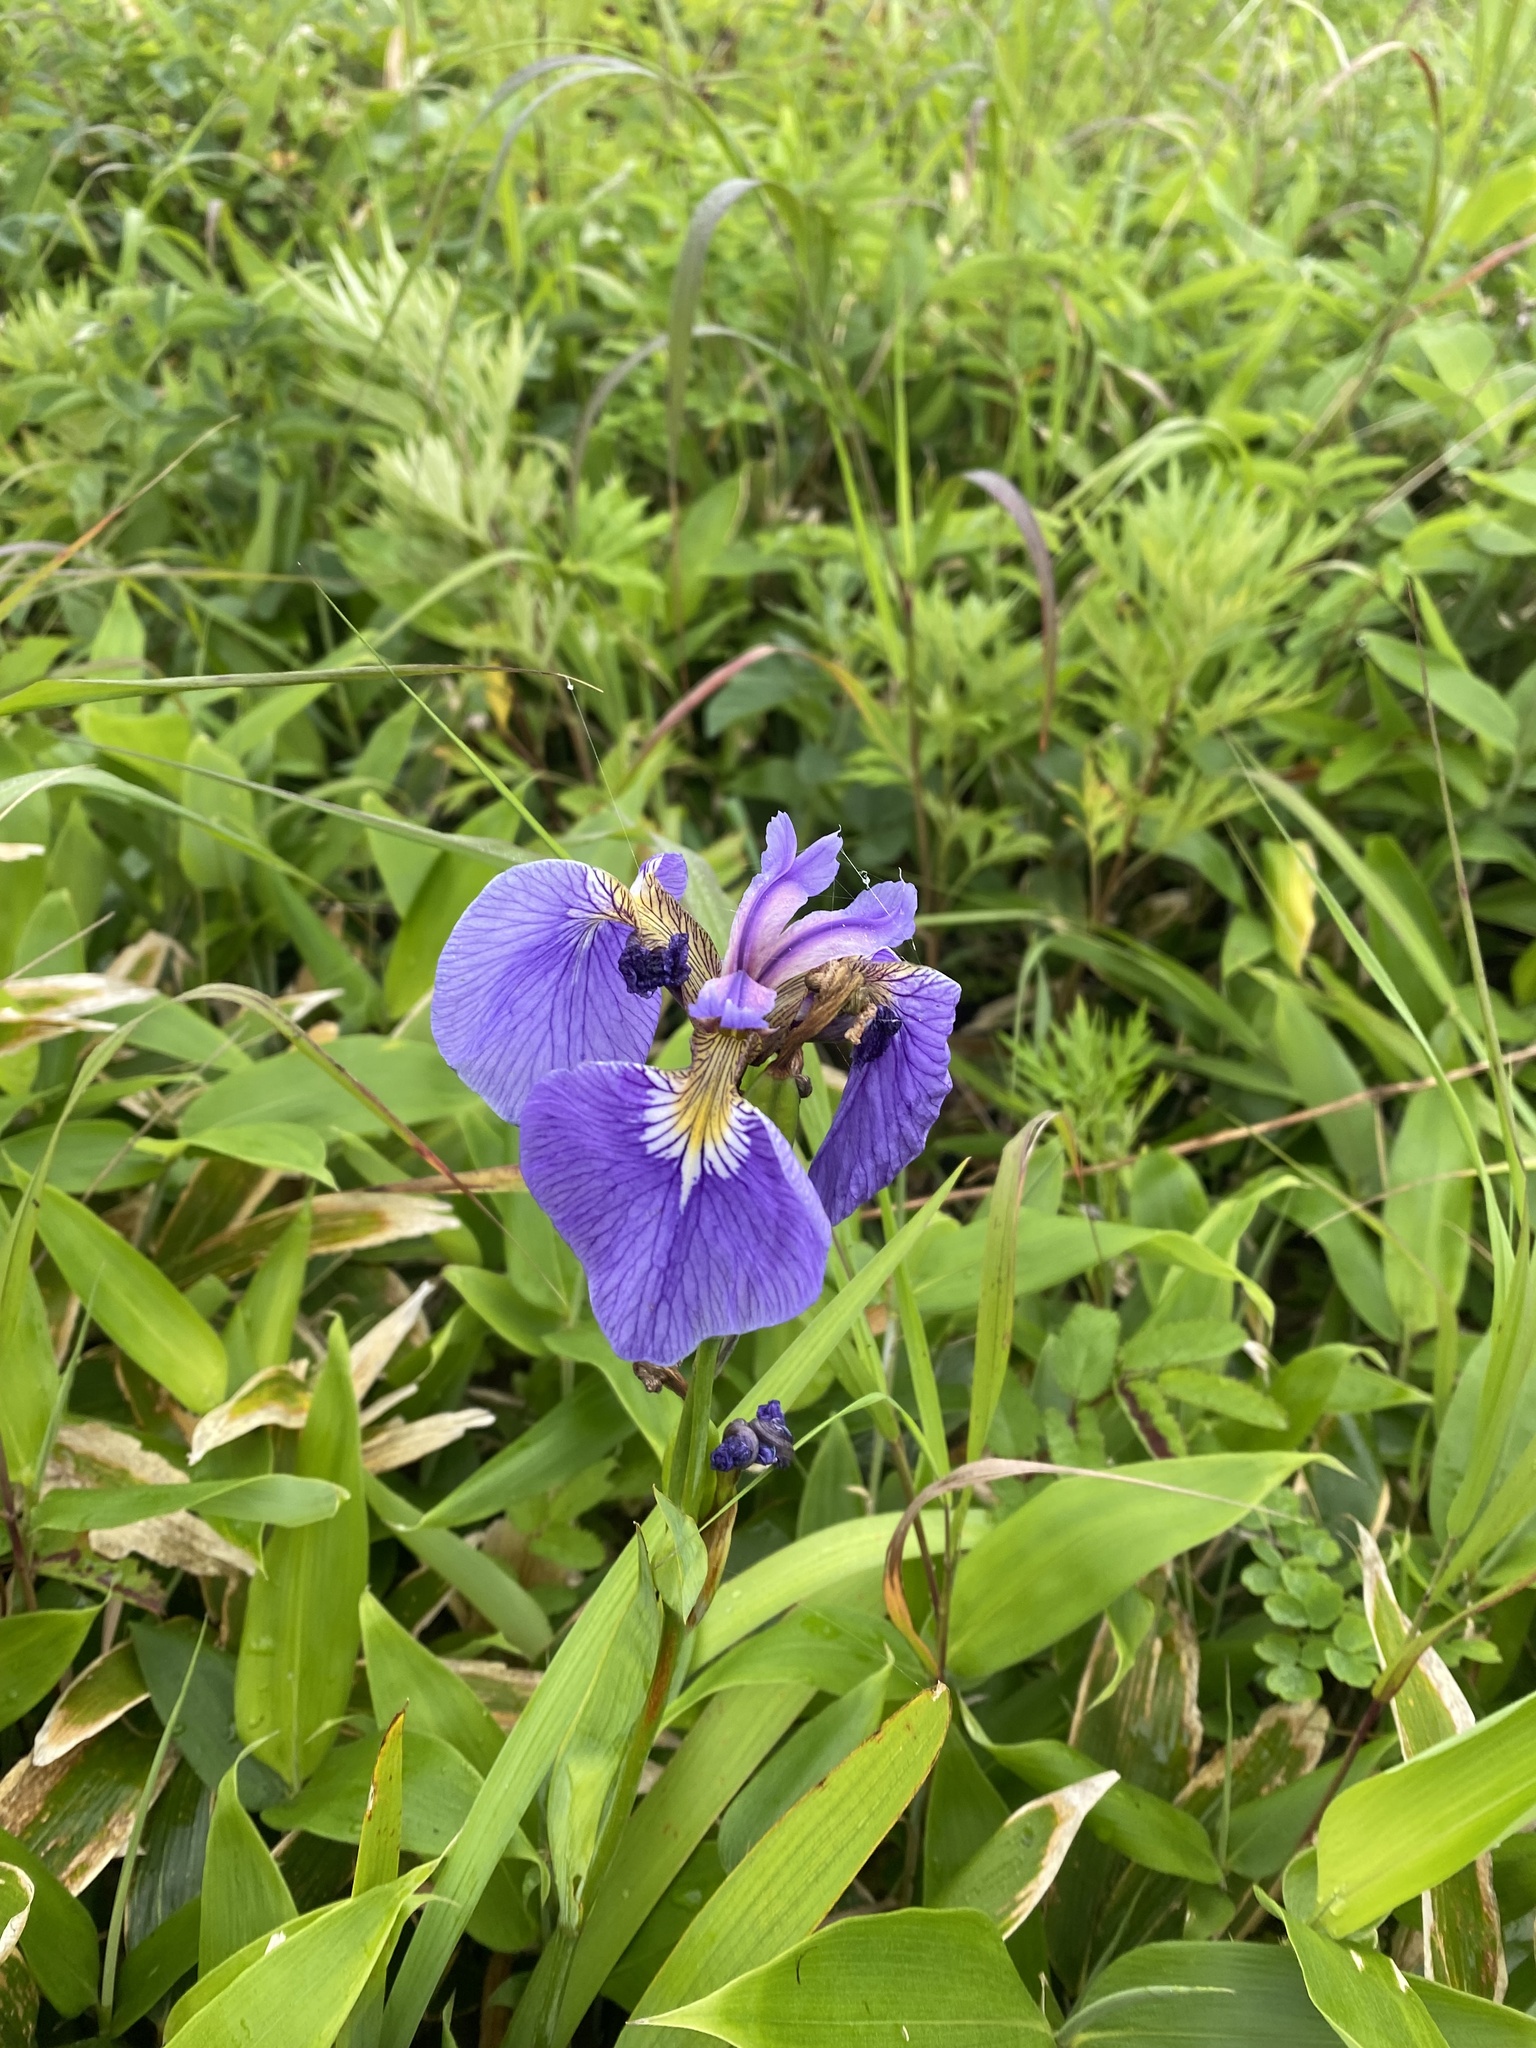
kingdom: Plantae
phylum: Tracheophyta
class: Liliopsida
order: Asparagales
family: Iridaceae
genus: Iris
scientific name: Iris setosa
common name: Arctic blue flag
